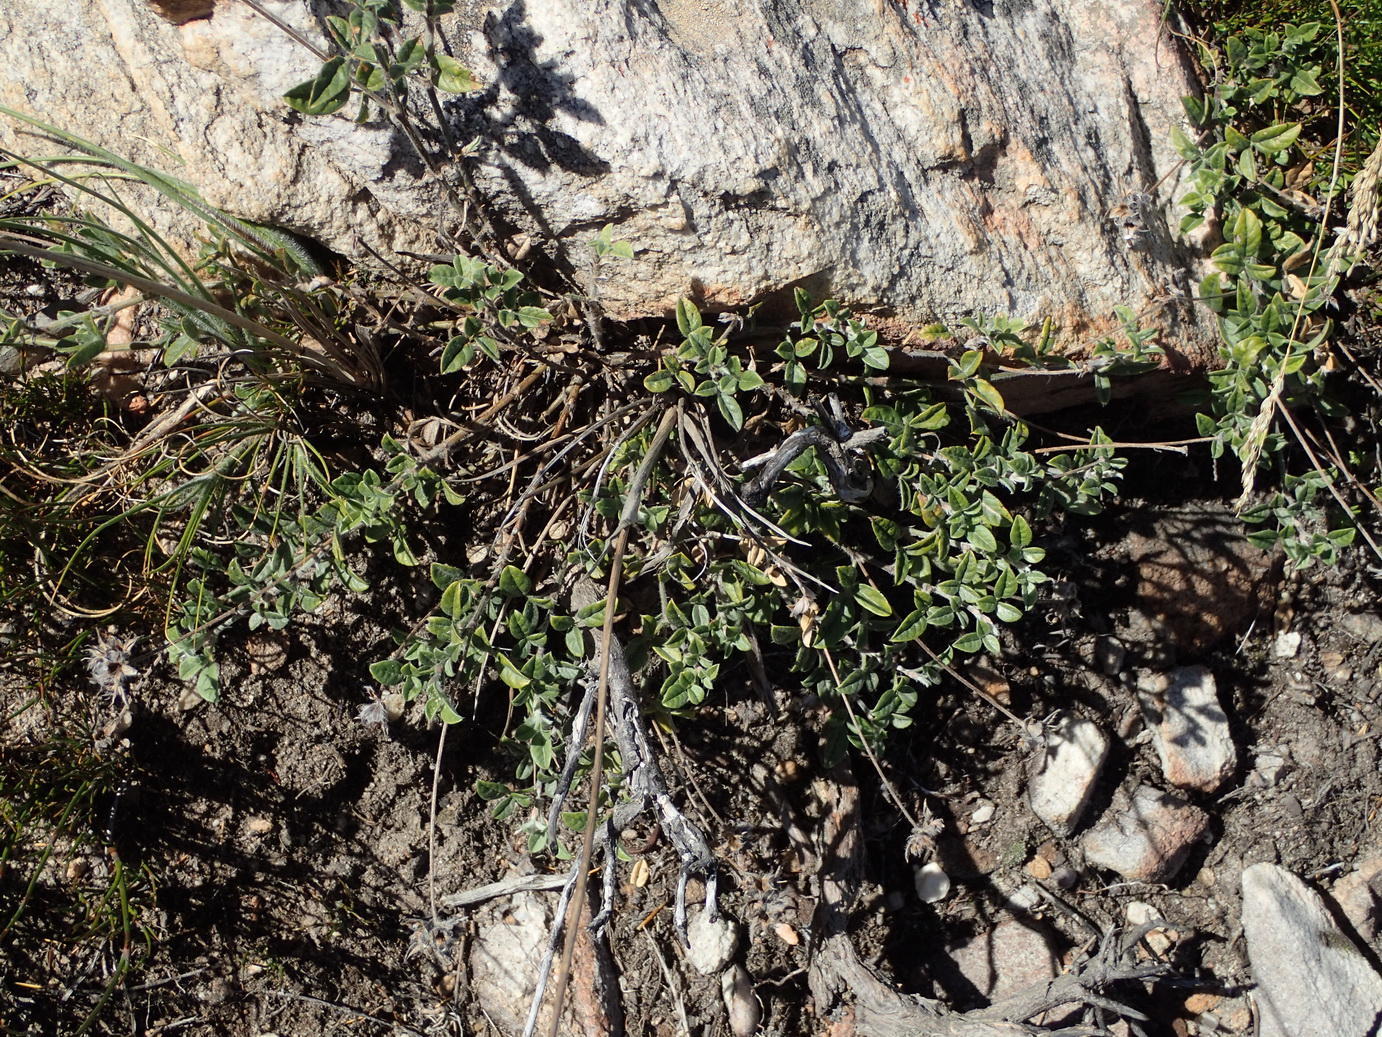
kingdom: Plantae
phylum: Tracheophyta
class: Magnoliopsida
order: Fabales
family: Fabaceae
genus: Psoralea
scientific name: Psoralea swartbergensis
